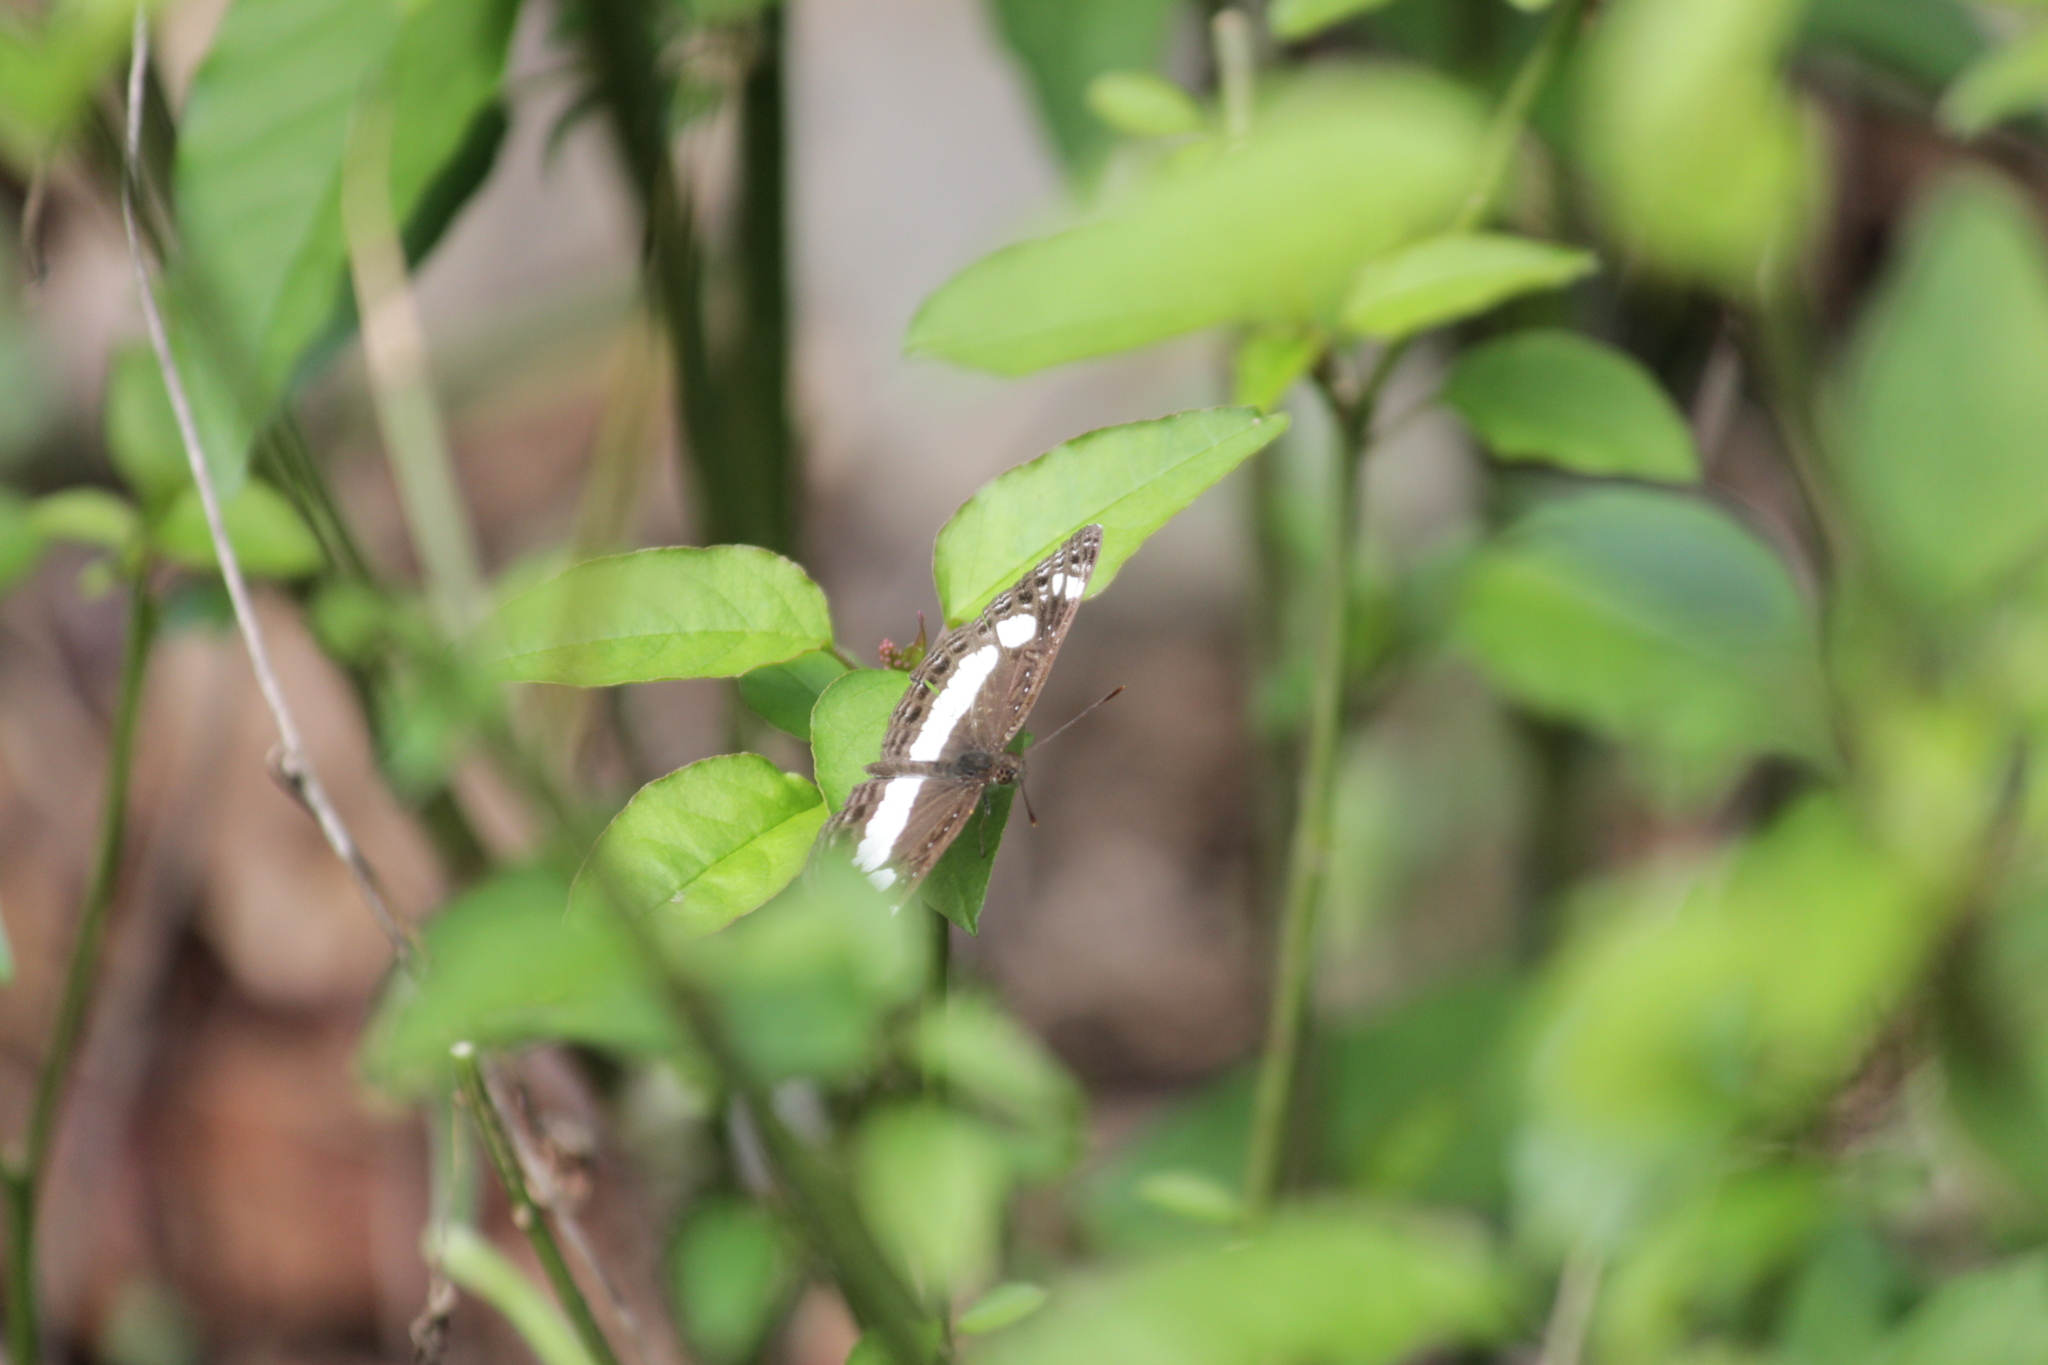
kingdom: Animalia
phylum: Arthropoda
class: Insecta
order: Lepidoptera
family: Nymphalidae
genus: Neptis
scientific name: Neptis saclava
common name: Small spotted sailor
